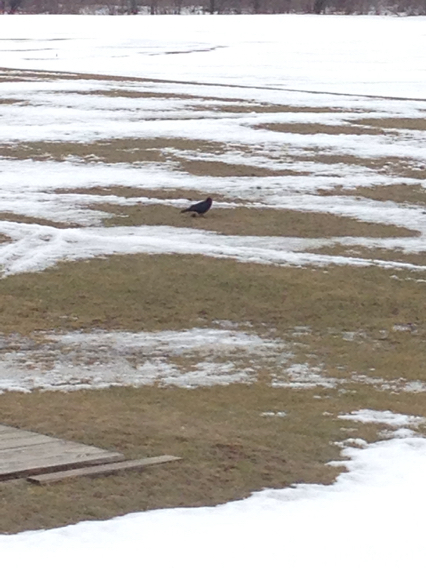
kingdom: Animalia
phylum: Chordata
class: Aves
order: Passeriformes
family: Corvidae
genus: Corvus
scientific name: Corvus brachyrhynchos
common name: American crow
